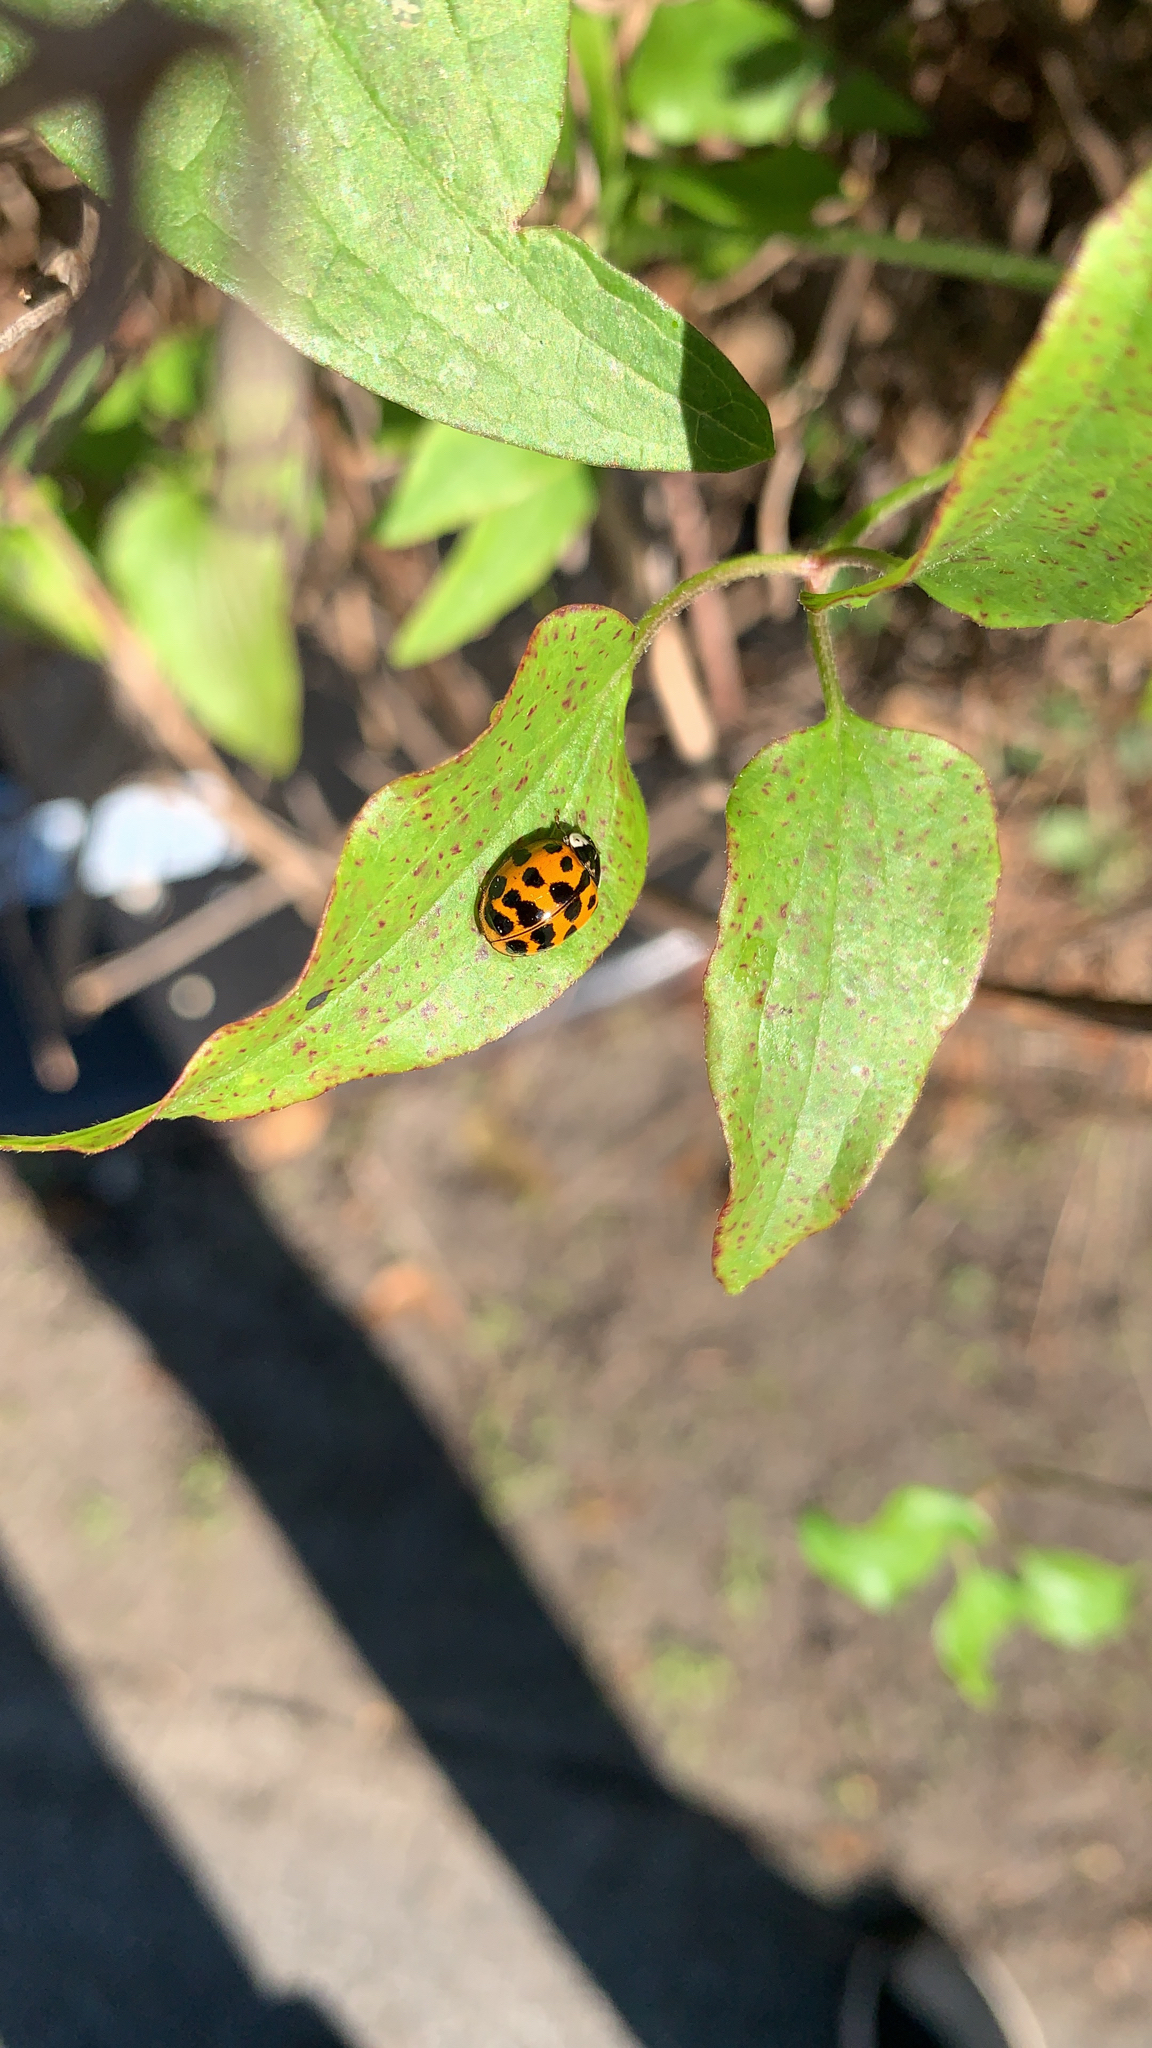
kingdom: Animalia
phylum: Arthropoda
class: Insecta
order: Coleoptera
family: Coccinellidae
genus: Harmonia
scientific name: Harmonia axyridis
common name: Harlequin ladybird
